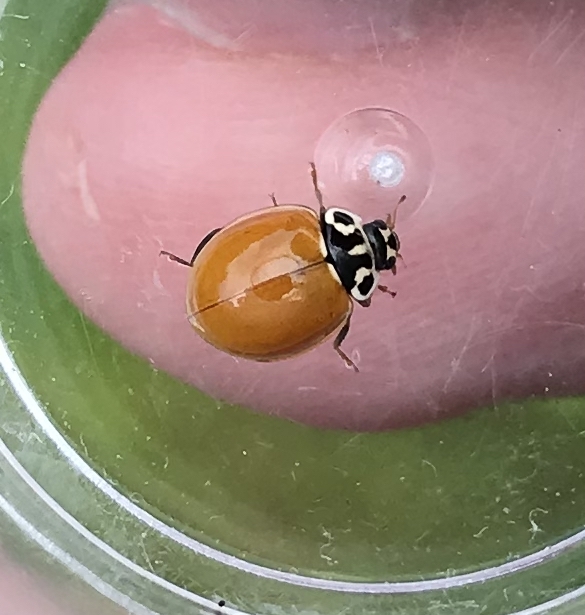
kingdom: Animalia
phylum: Arthropoda
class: Insecta
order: Coleoptera
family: Coccinellidae
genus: Cycloneda
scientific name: Cycloneda polita
